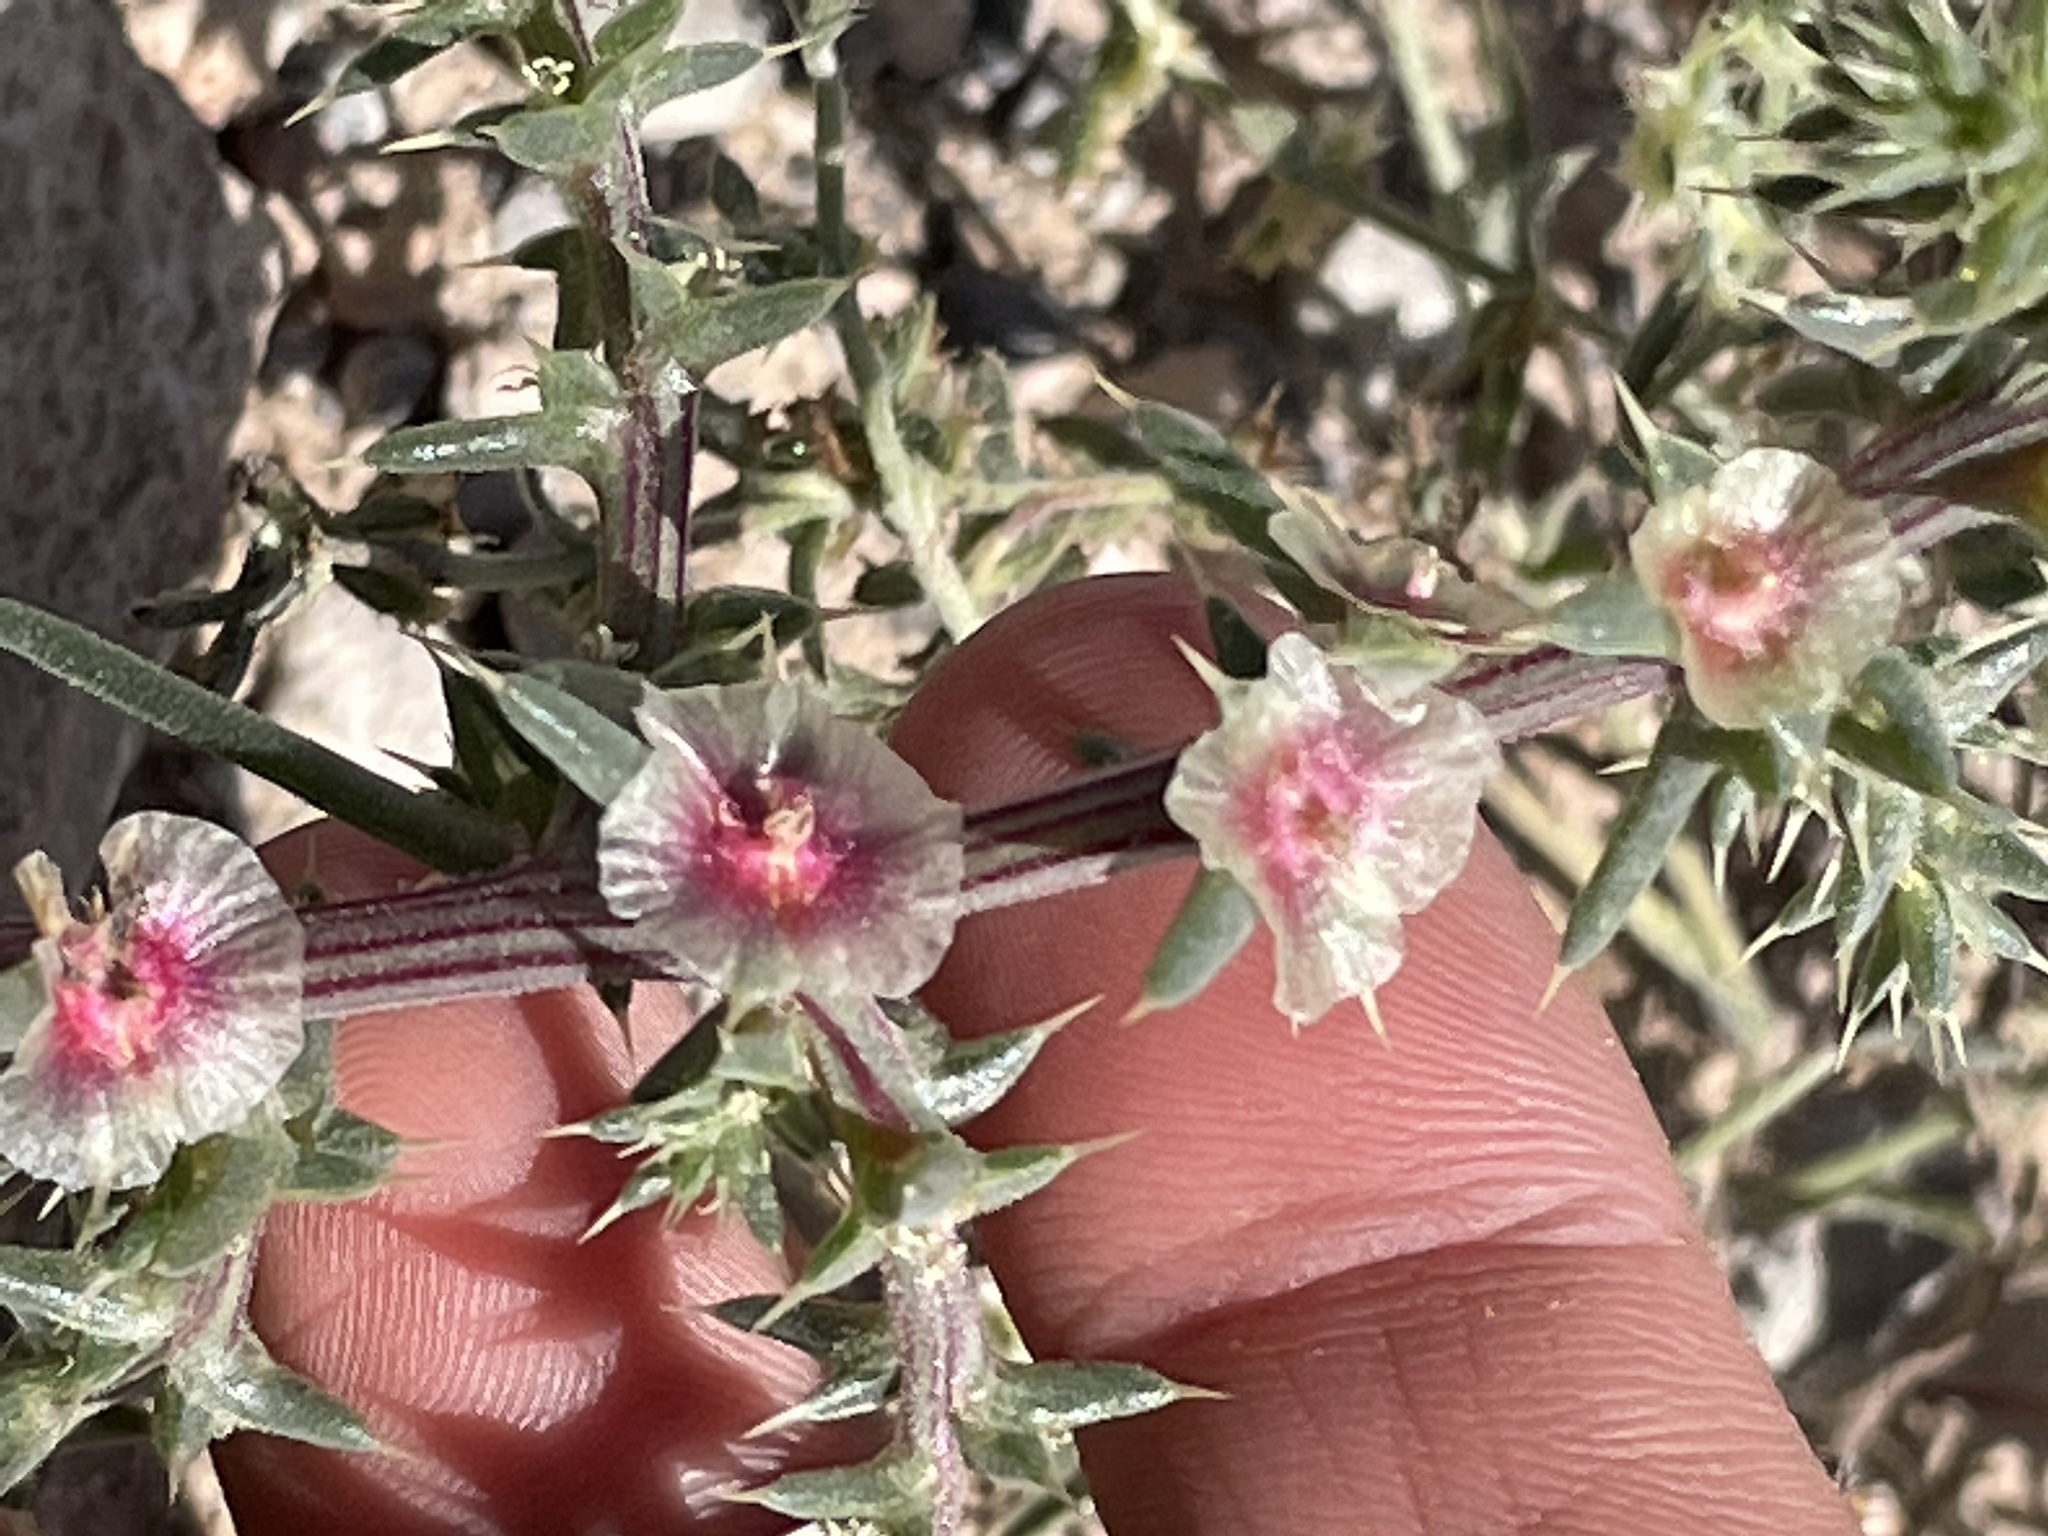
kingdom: Plantae
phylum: Tracheophyta
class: Magnoliopsida
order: Caryophyllales
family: Amaranthaceae
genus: Salsola
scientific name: Salsola tragus
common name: Prickly russian thistle
